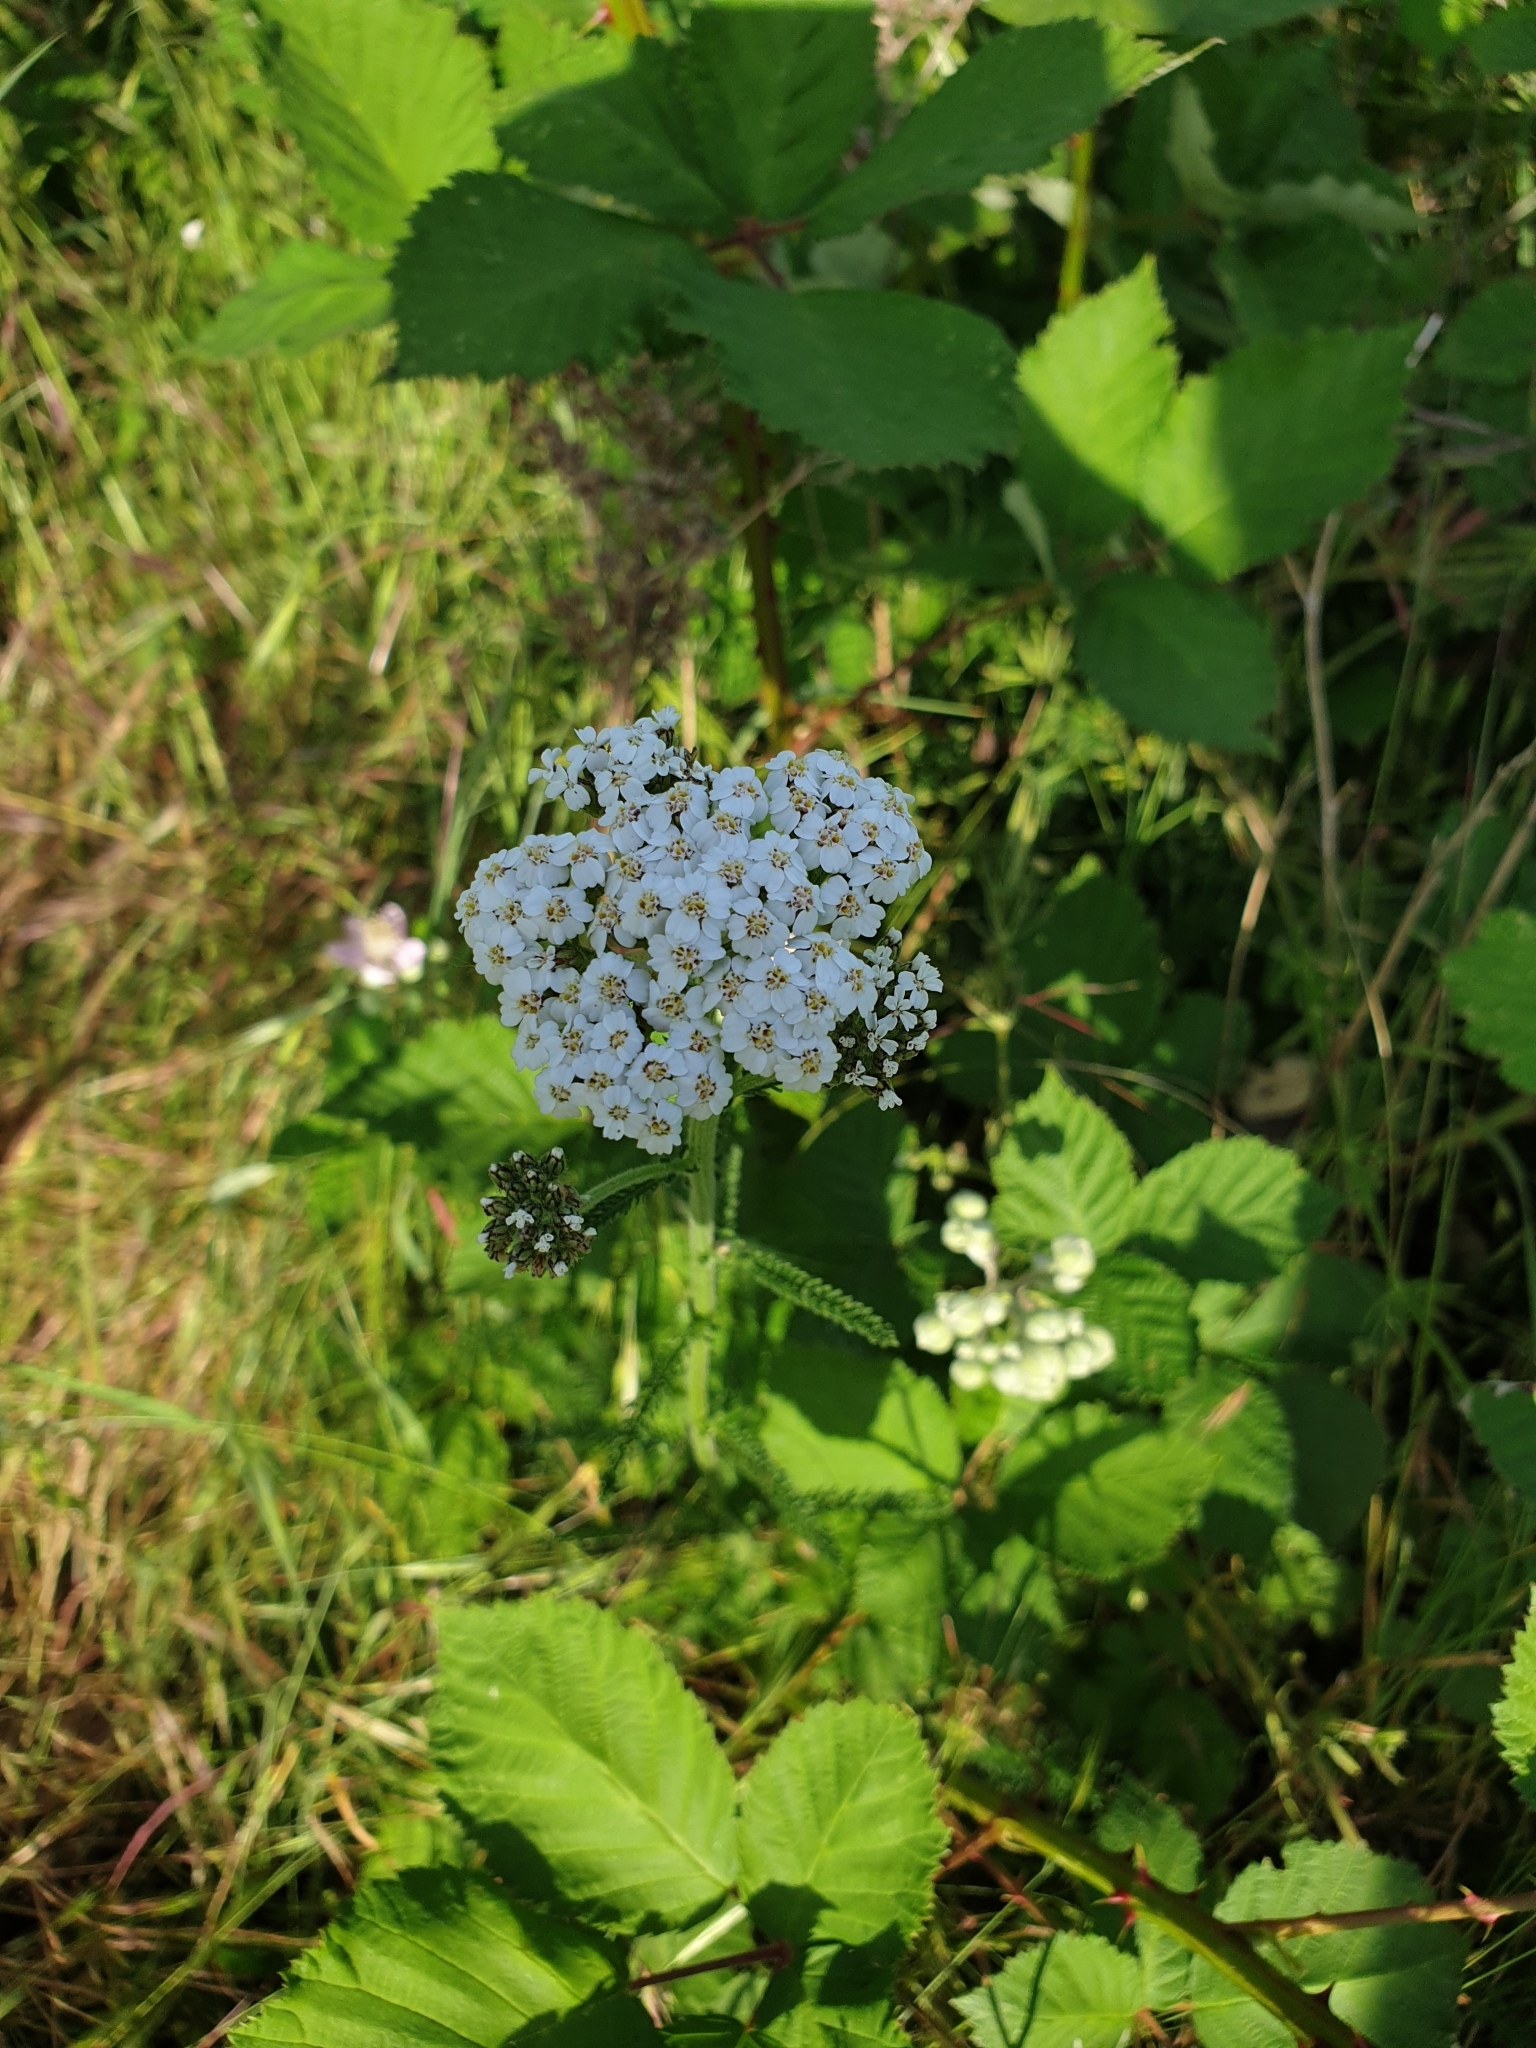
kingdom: Plantae
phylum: Tracheophyta
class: Magnoliopsida
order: Asterales
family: Asteraceae
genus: Achillea
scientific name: Achillea millefolium
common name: Yarrow
